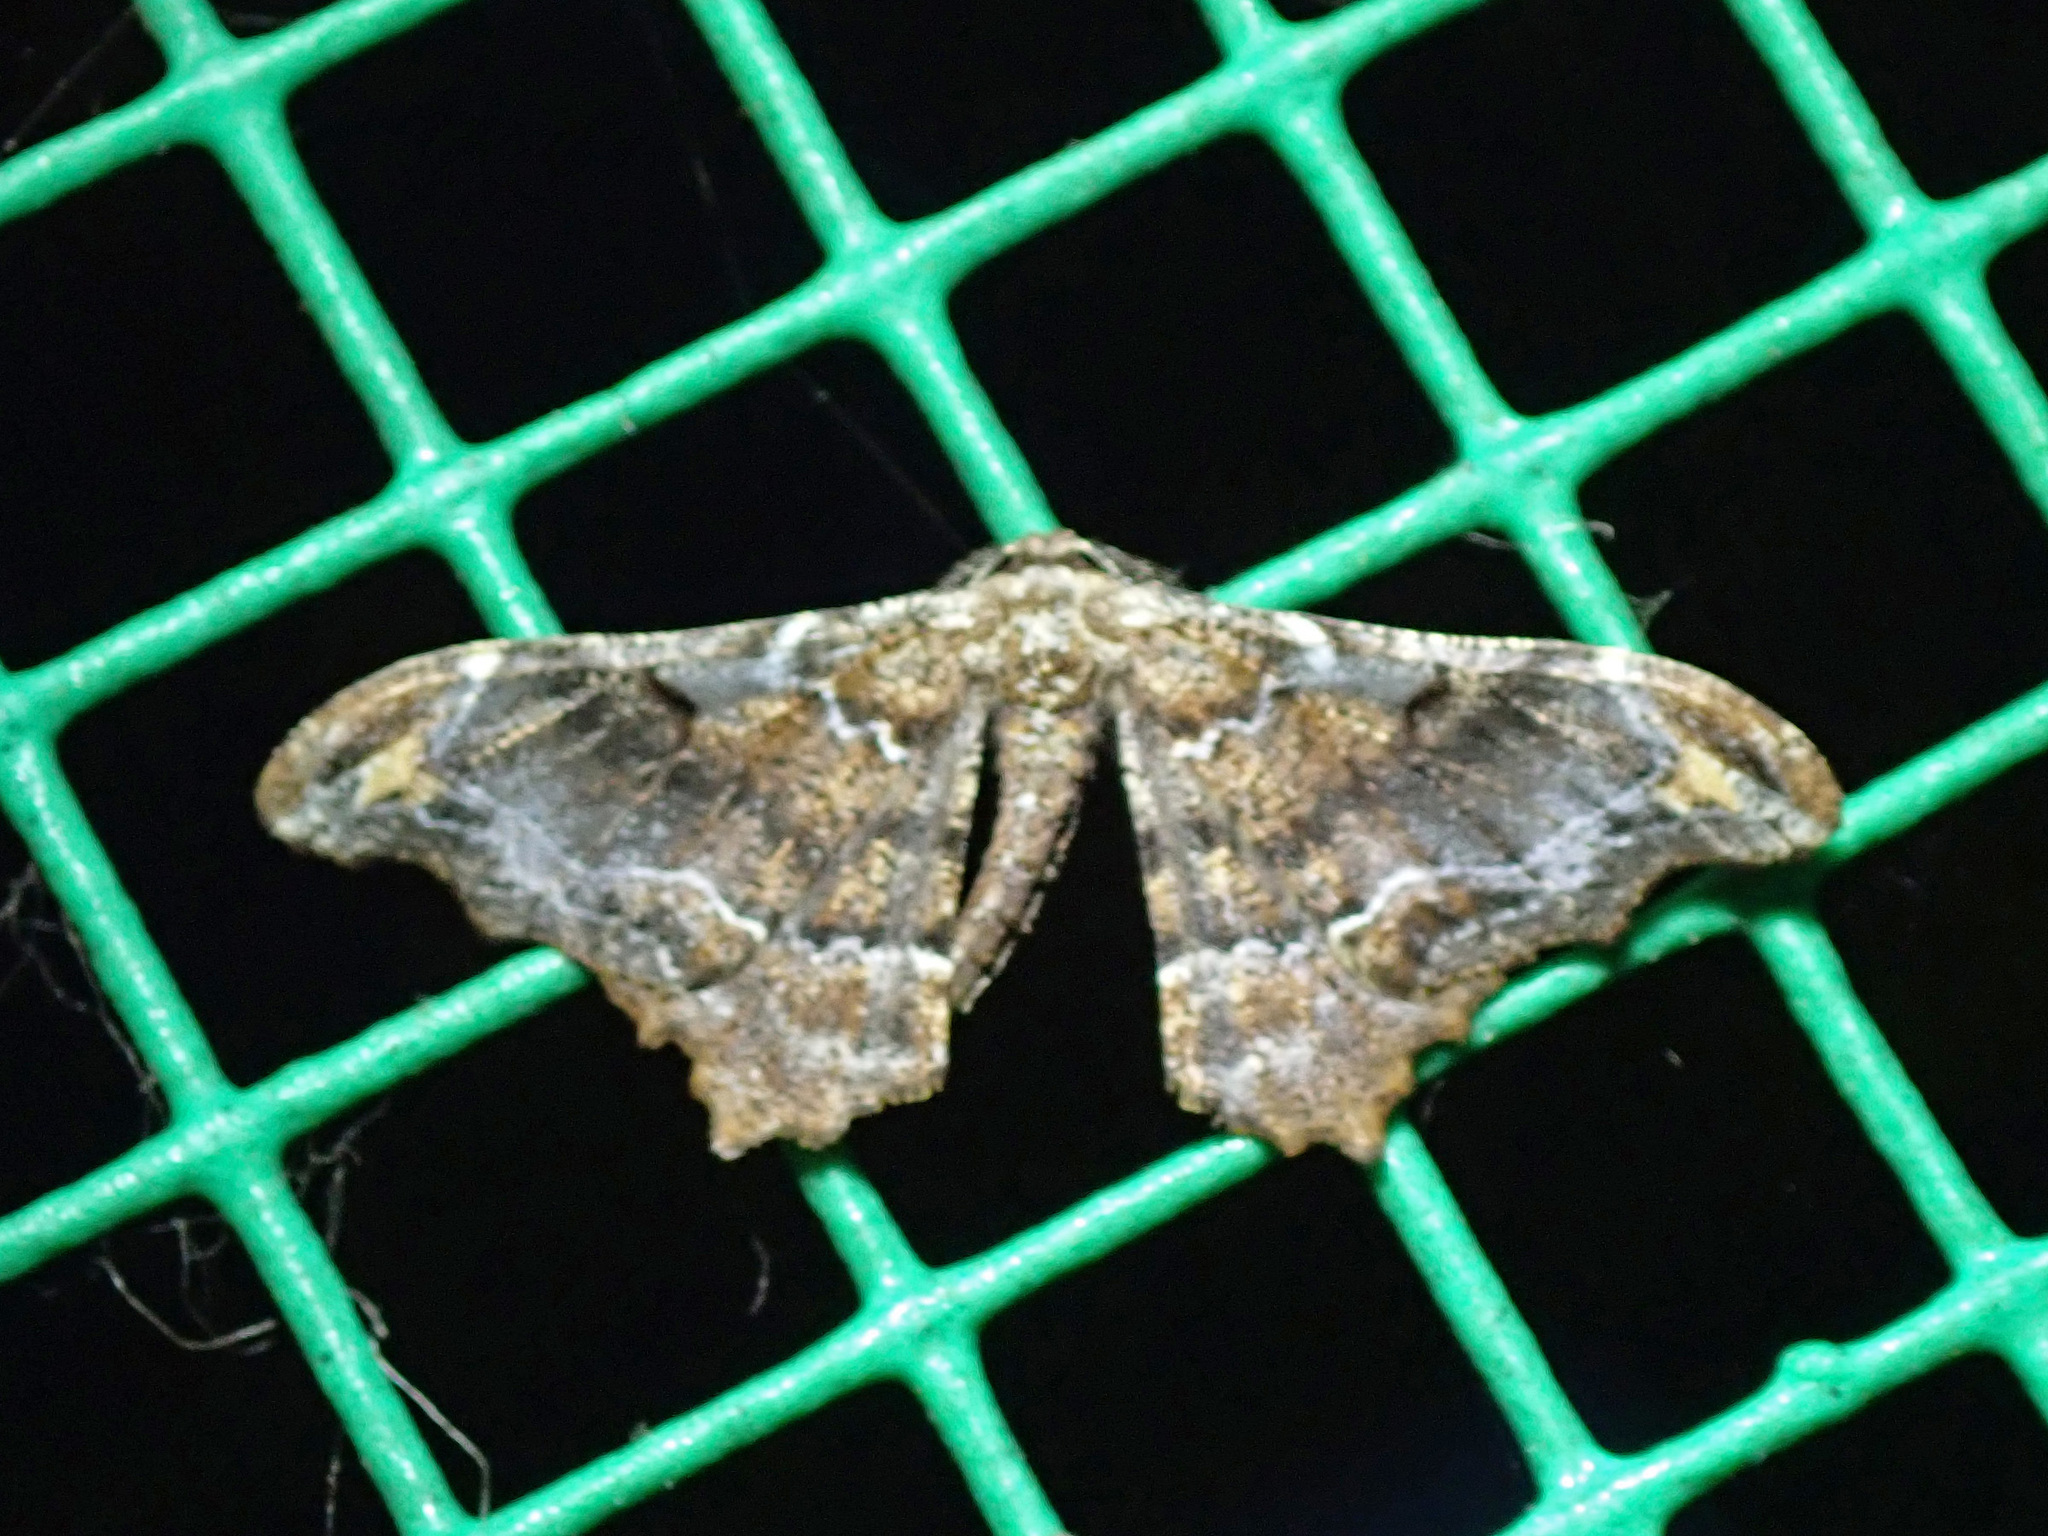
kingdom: Animalia
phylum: Arthropoda
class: Insecta
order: Lepidoptera
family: Geometridae
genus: Hyposidra
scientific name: Hyposidra violescens
